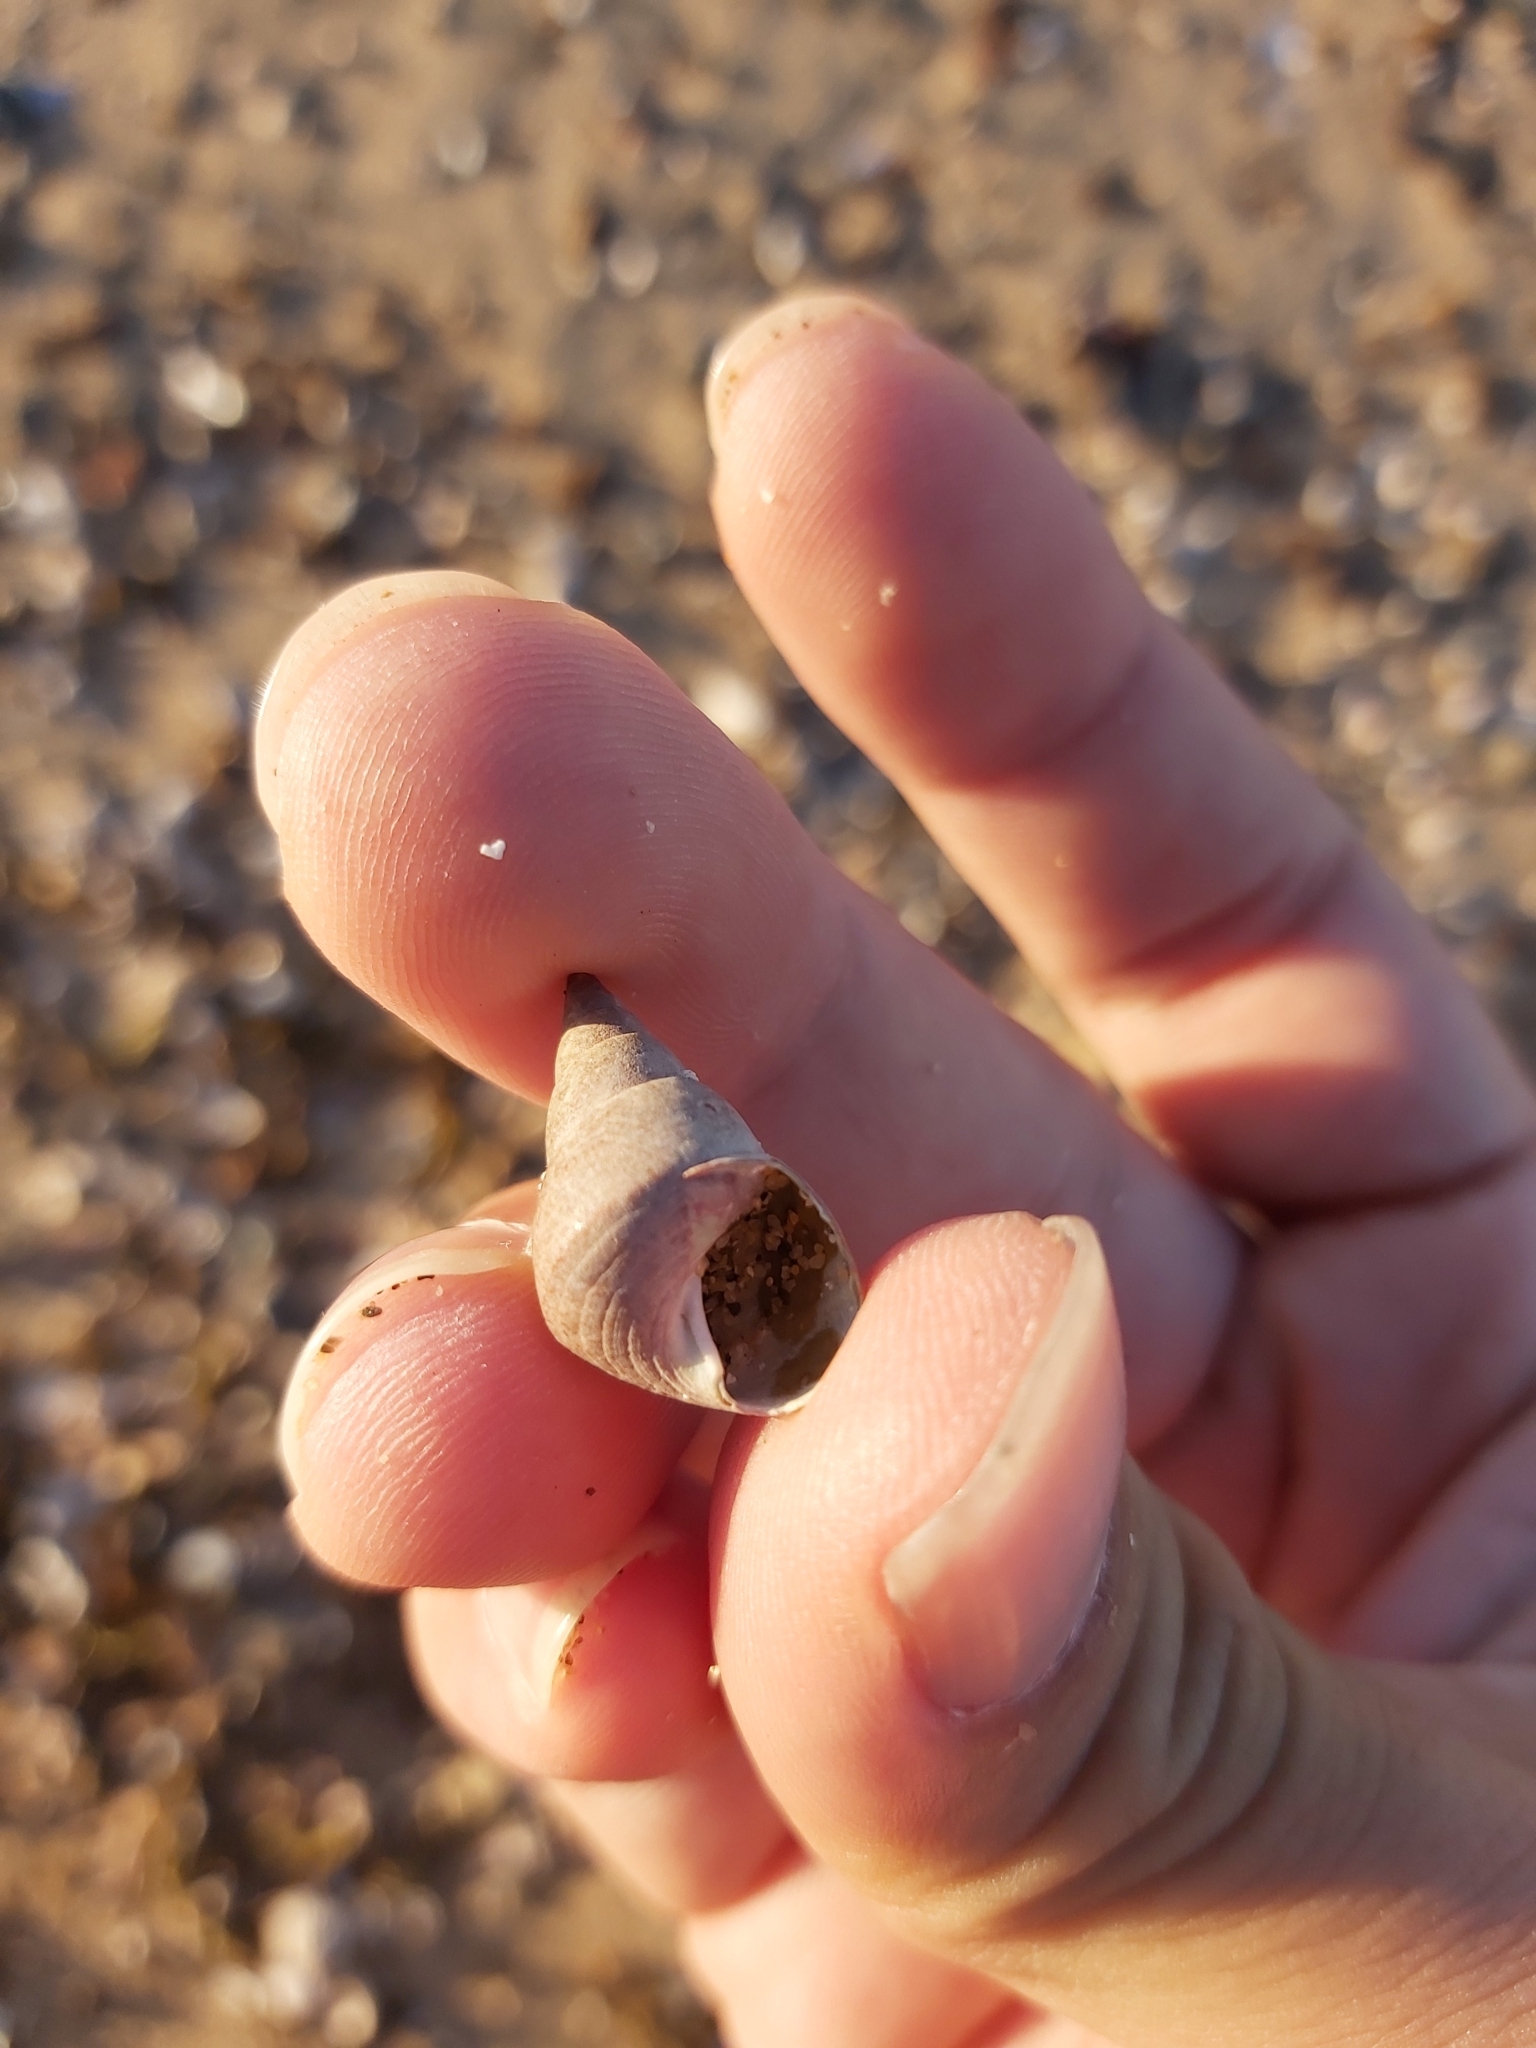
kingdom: Animalia
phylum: Mollusca
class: Gastropoda
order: Trochida
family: Trochidae
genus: Phasianotrochus
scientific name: Phasianotrochus eximius
